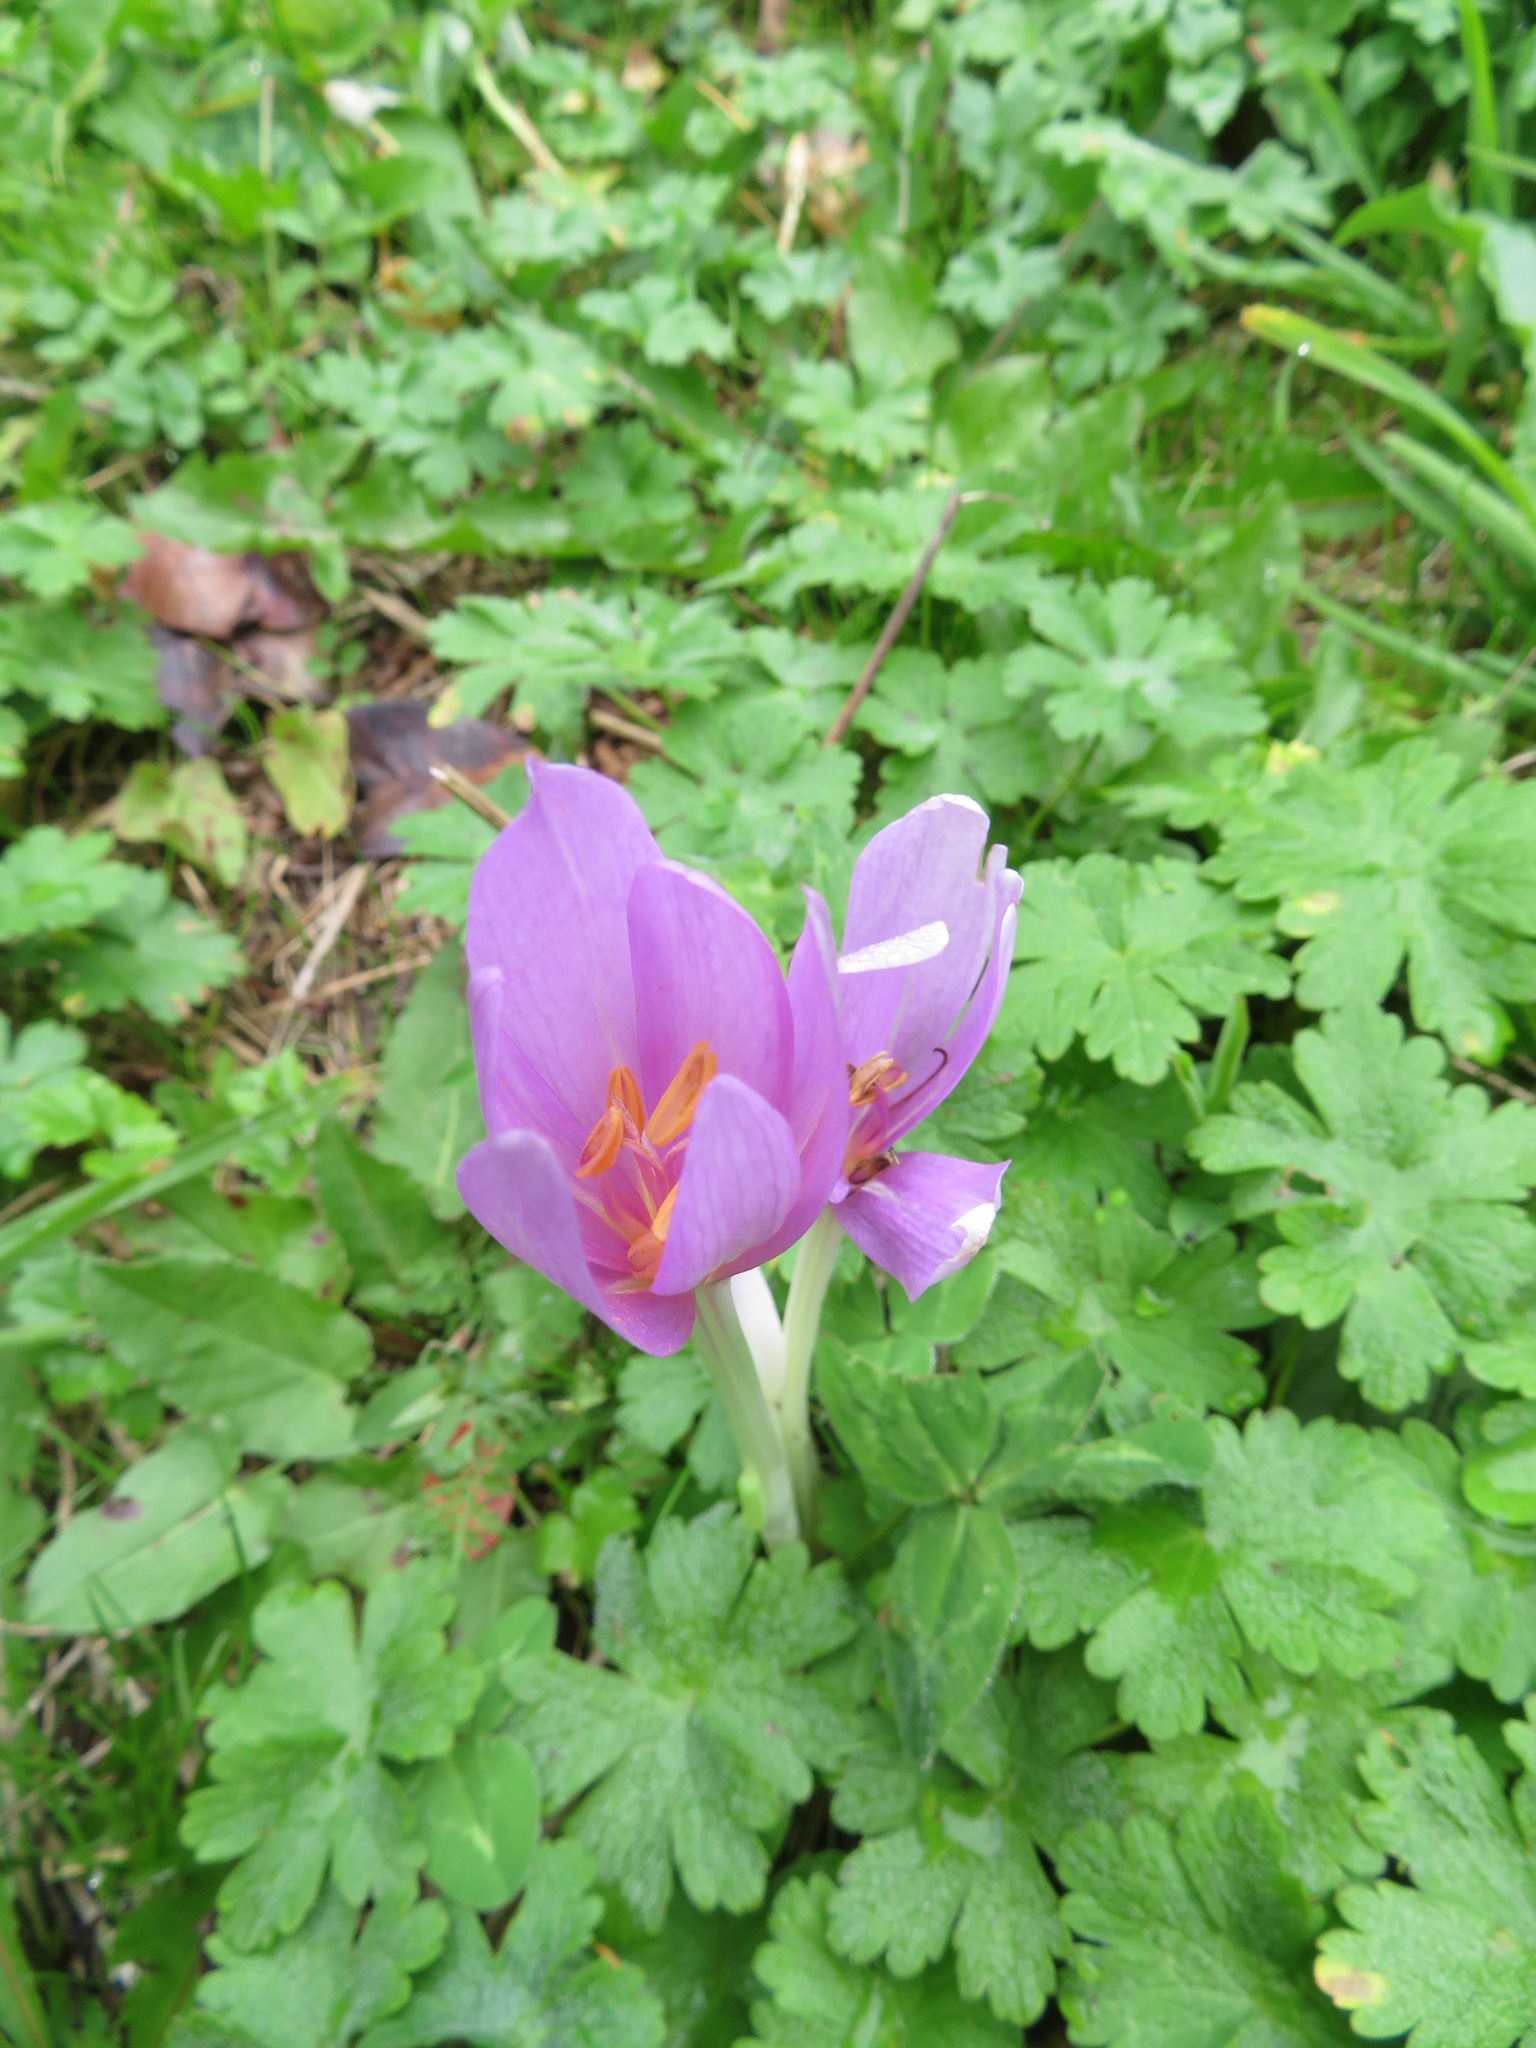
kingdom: Plantae
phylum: Tracheophyta
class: Liliopsida
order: Liliales
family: Colchicaceae
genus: Colchicum
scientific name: Colchicum autumnale
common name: Autumn crocus
